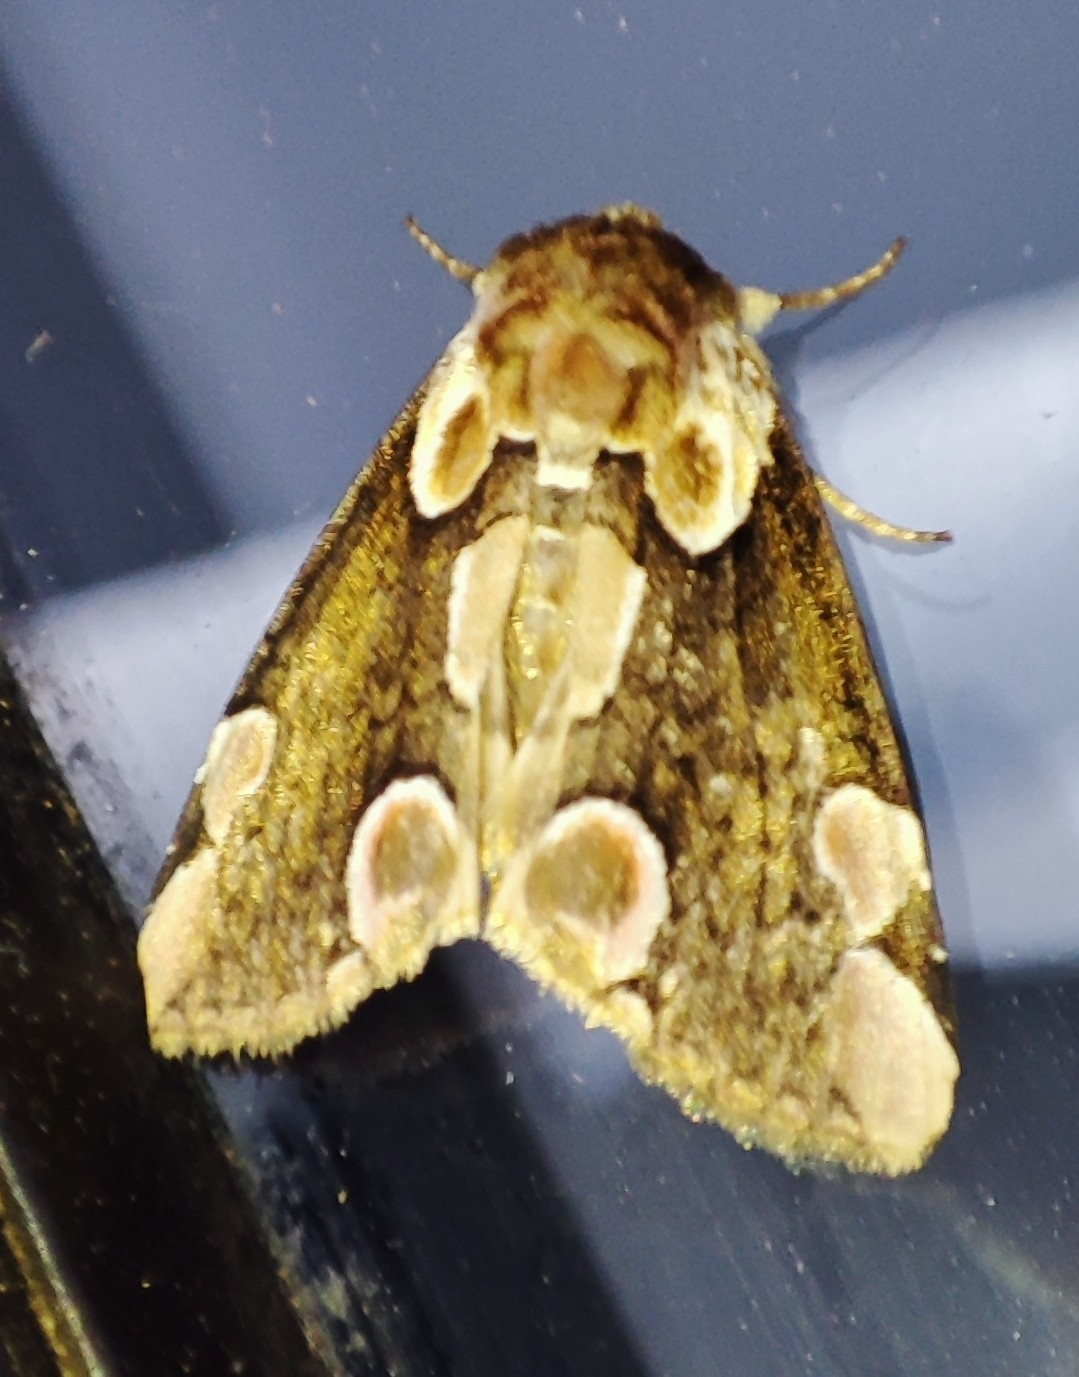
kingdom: Animalia
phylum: Arthropoda
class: Insecta
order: Lepidoptera
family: Drepanidae
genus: Thyatira
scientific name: Thyatira batis
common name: Peach blossom
